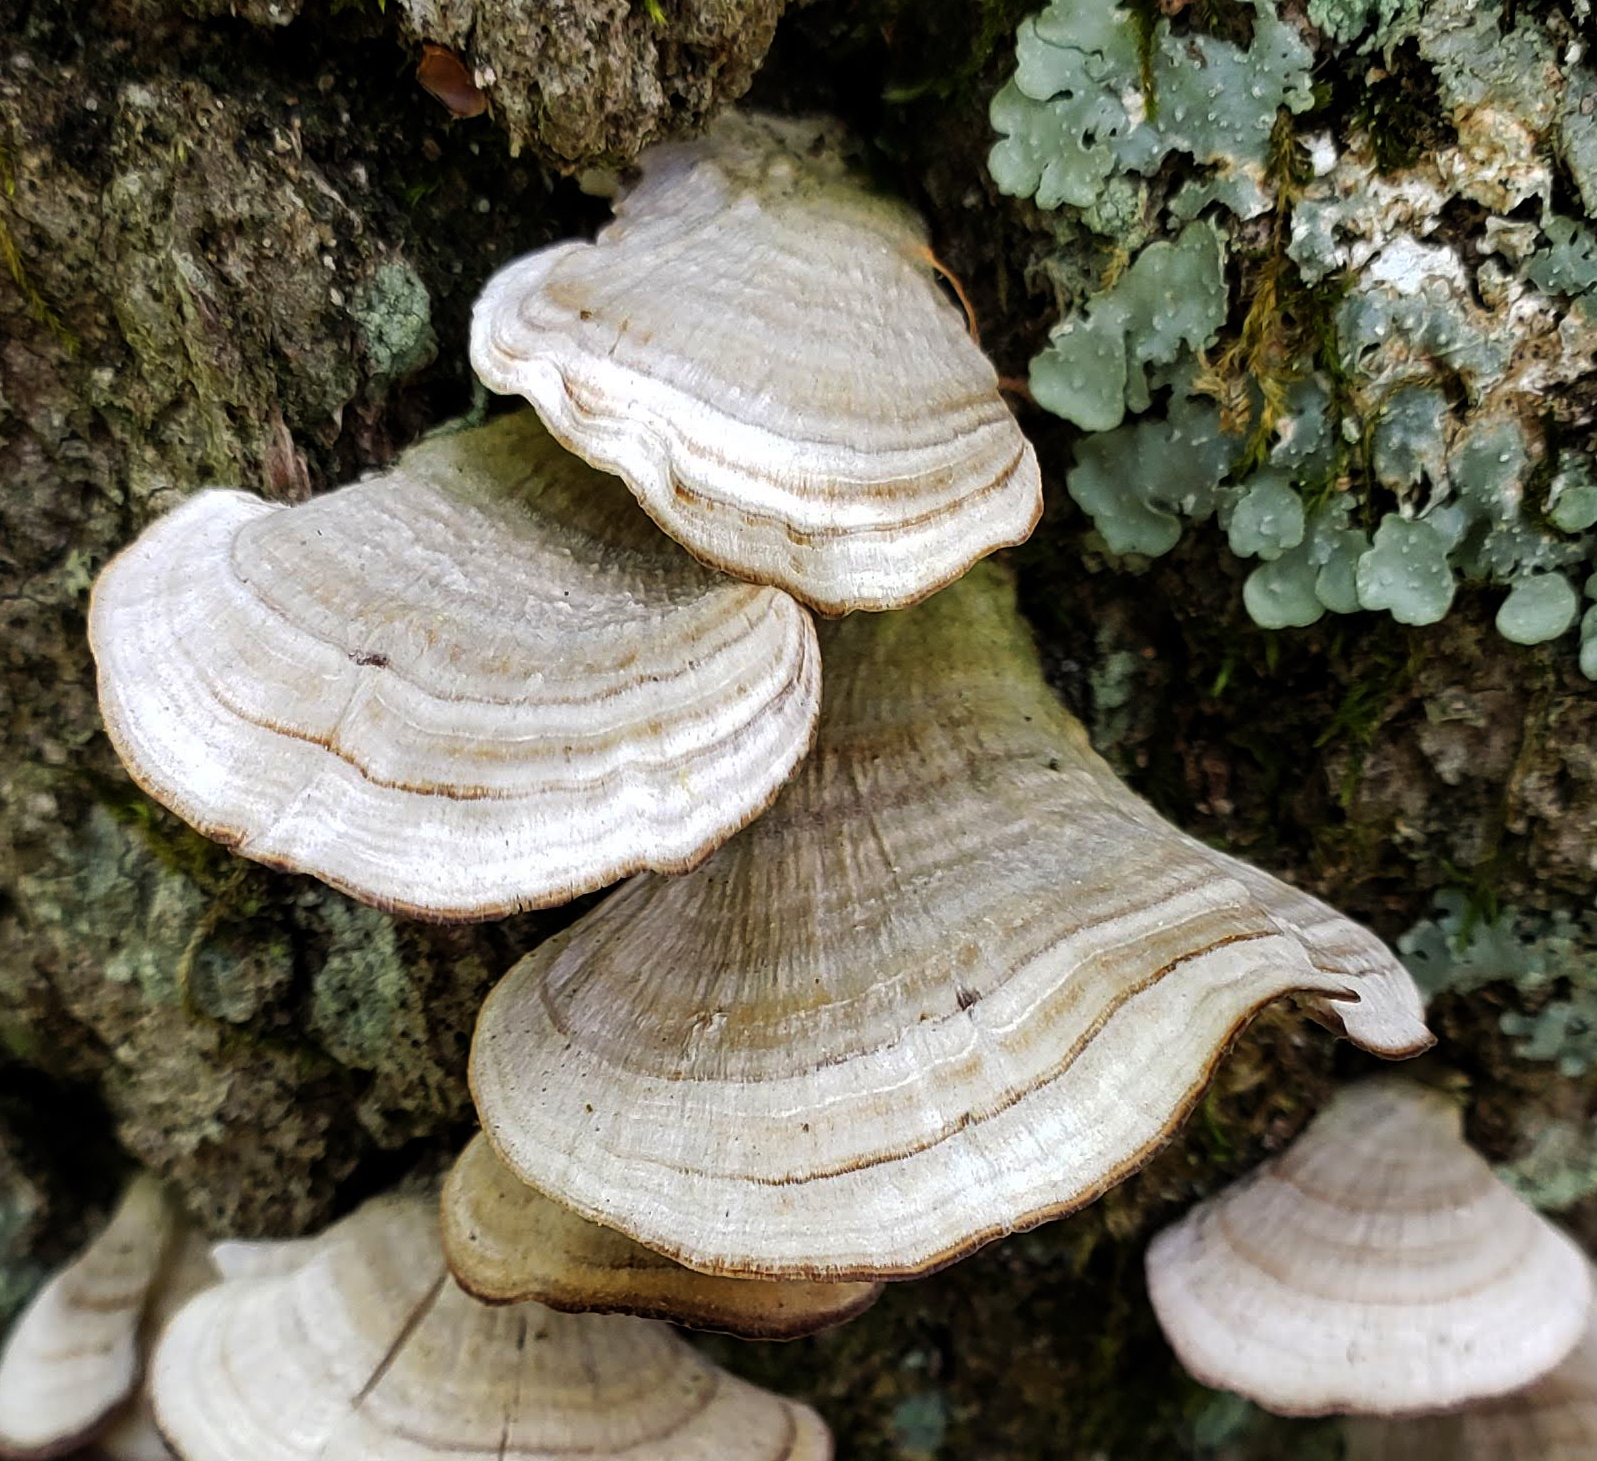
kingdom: Fungi
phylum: Basidiomycota
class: Agaricomycetes
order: Hymenochaetales
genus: Trichaptum
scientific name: Trichaptum biforme
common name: Violet-toothed polypore
